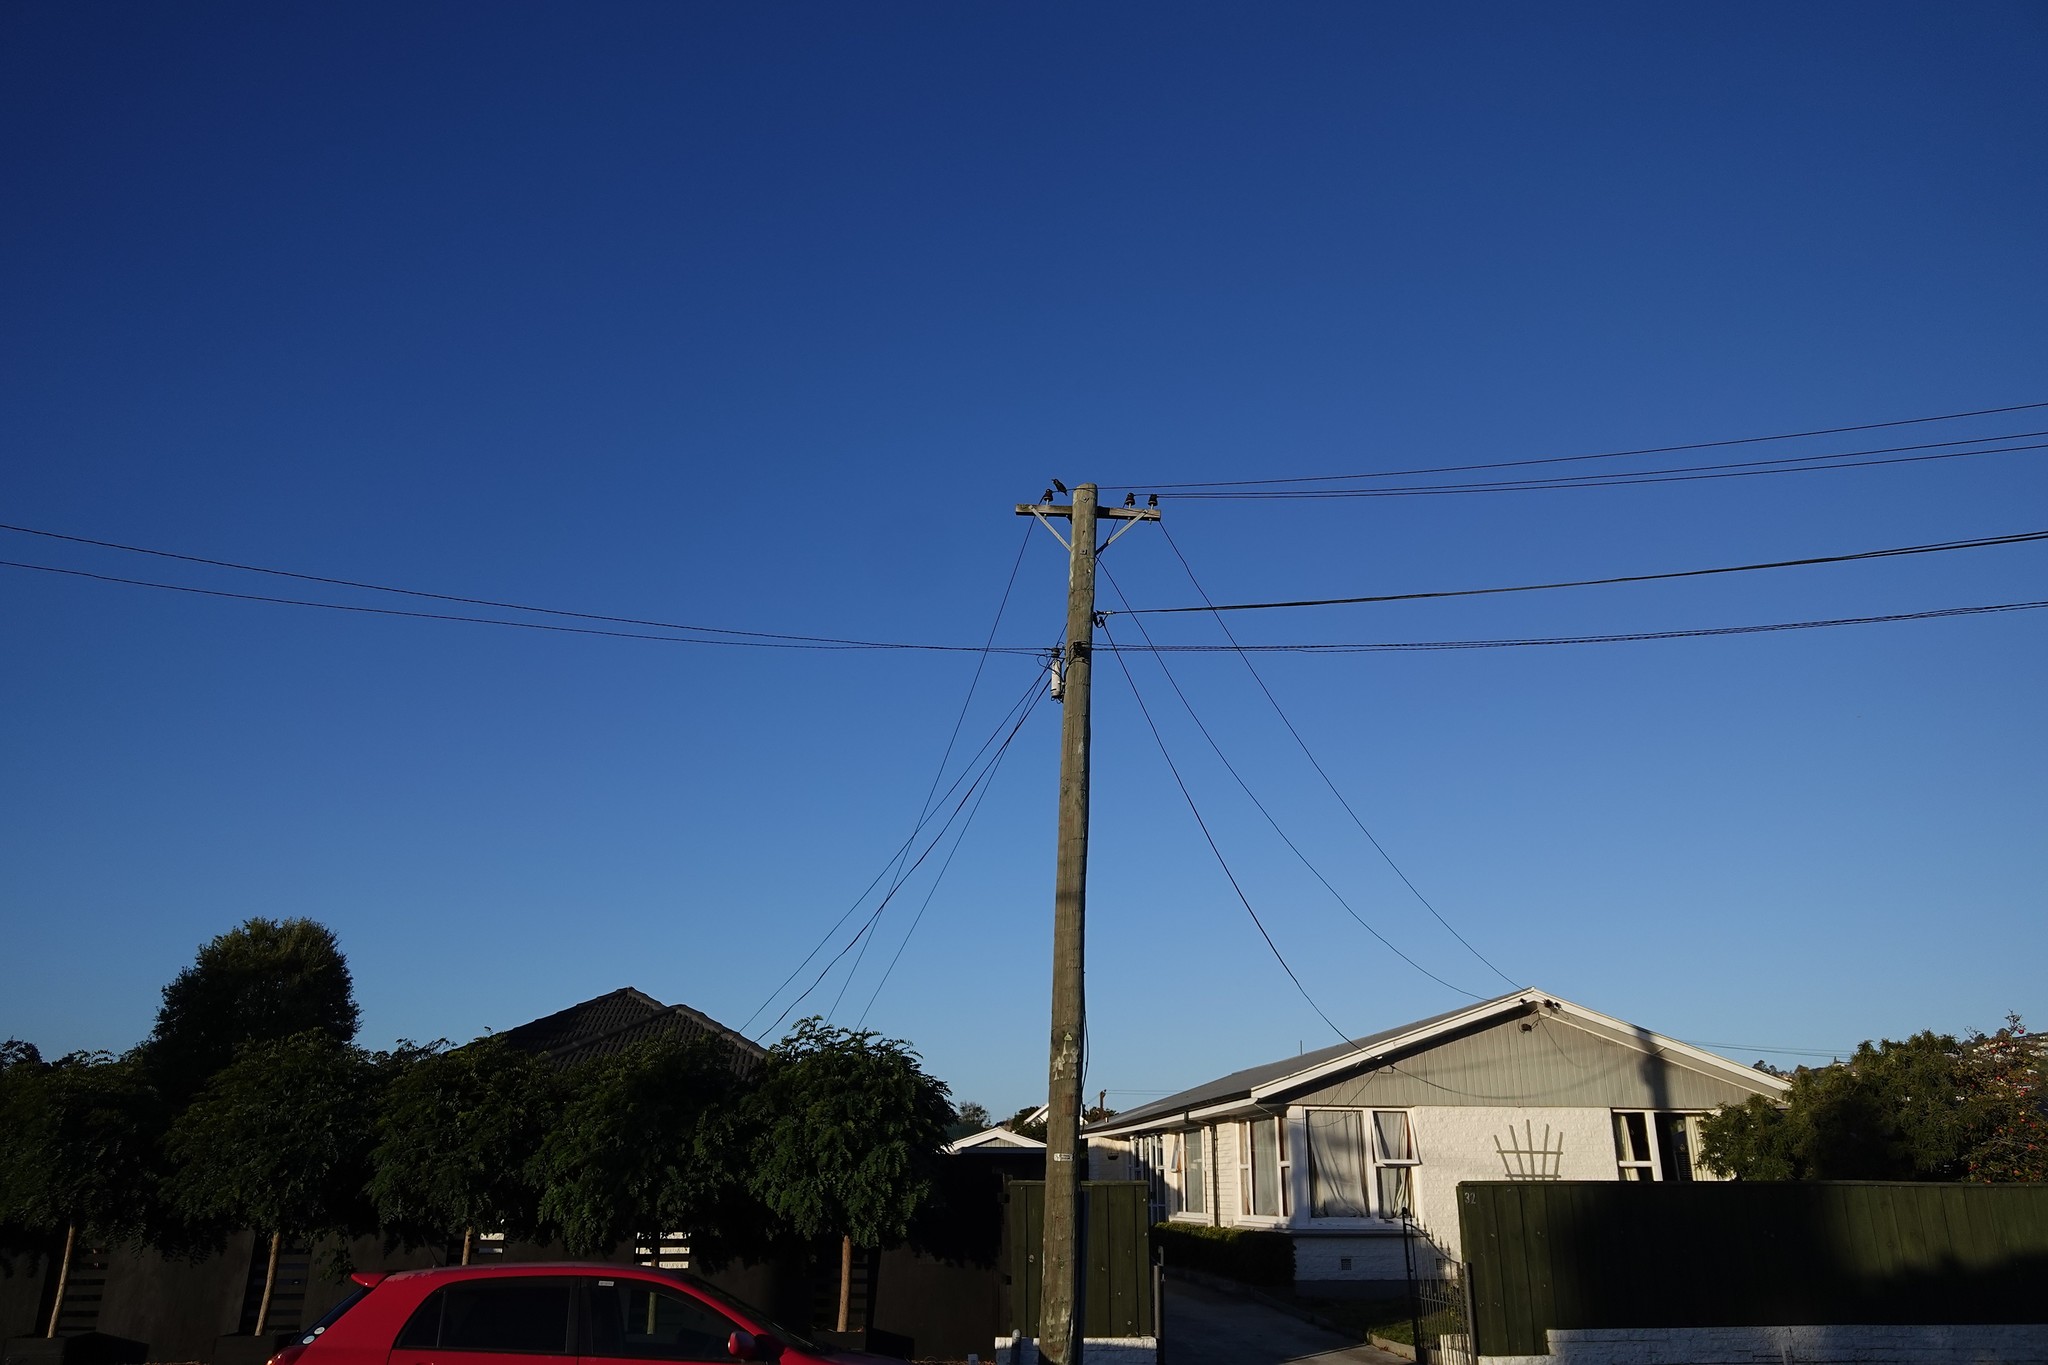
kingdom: Animalia
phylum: Chordata
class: Aves
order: Passeriformes
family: Sturnidae
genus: Sturnus
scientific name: Sturnus vulgaris
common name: Common starling
